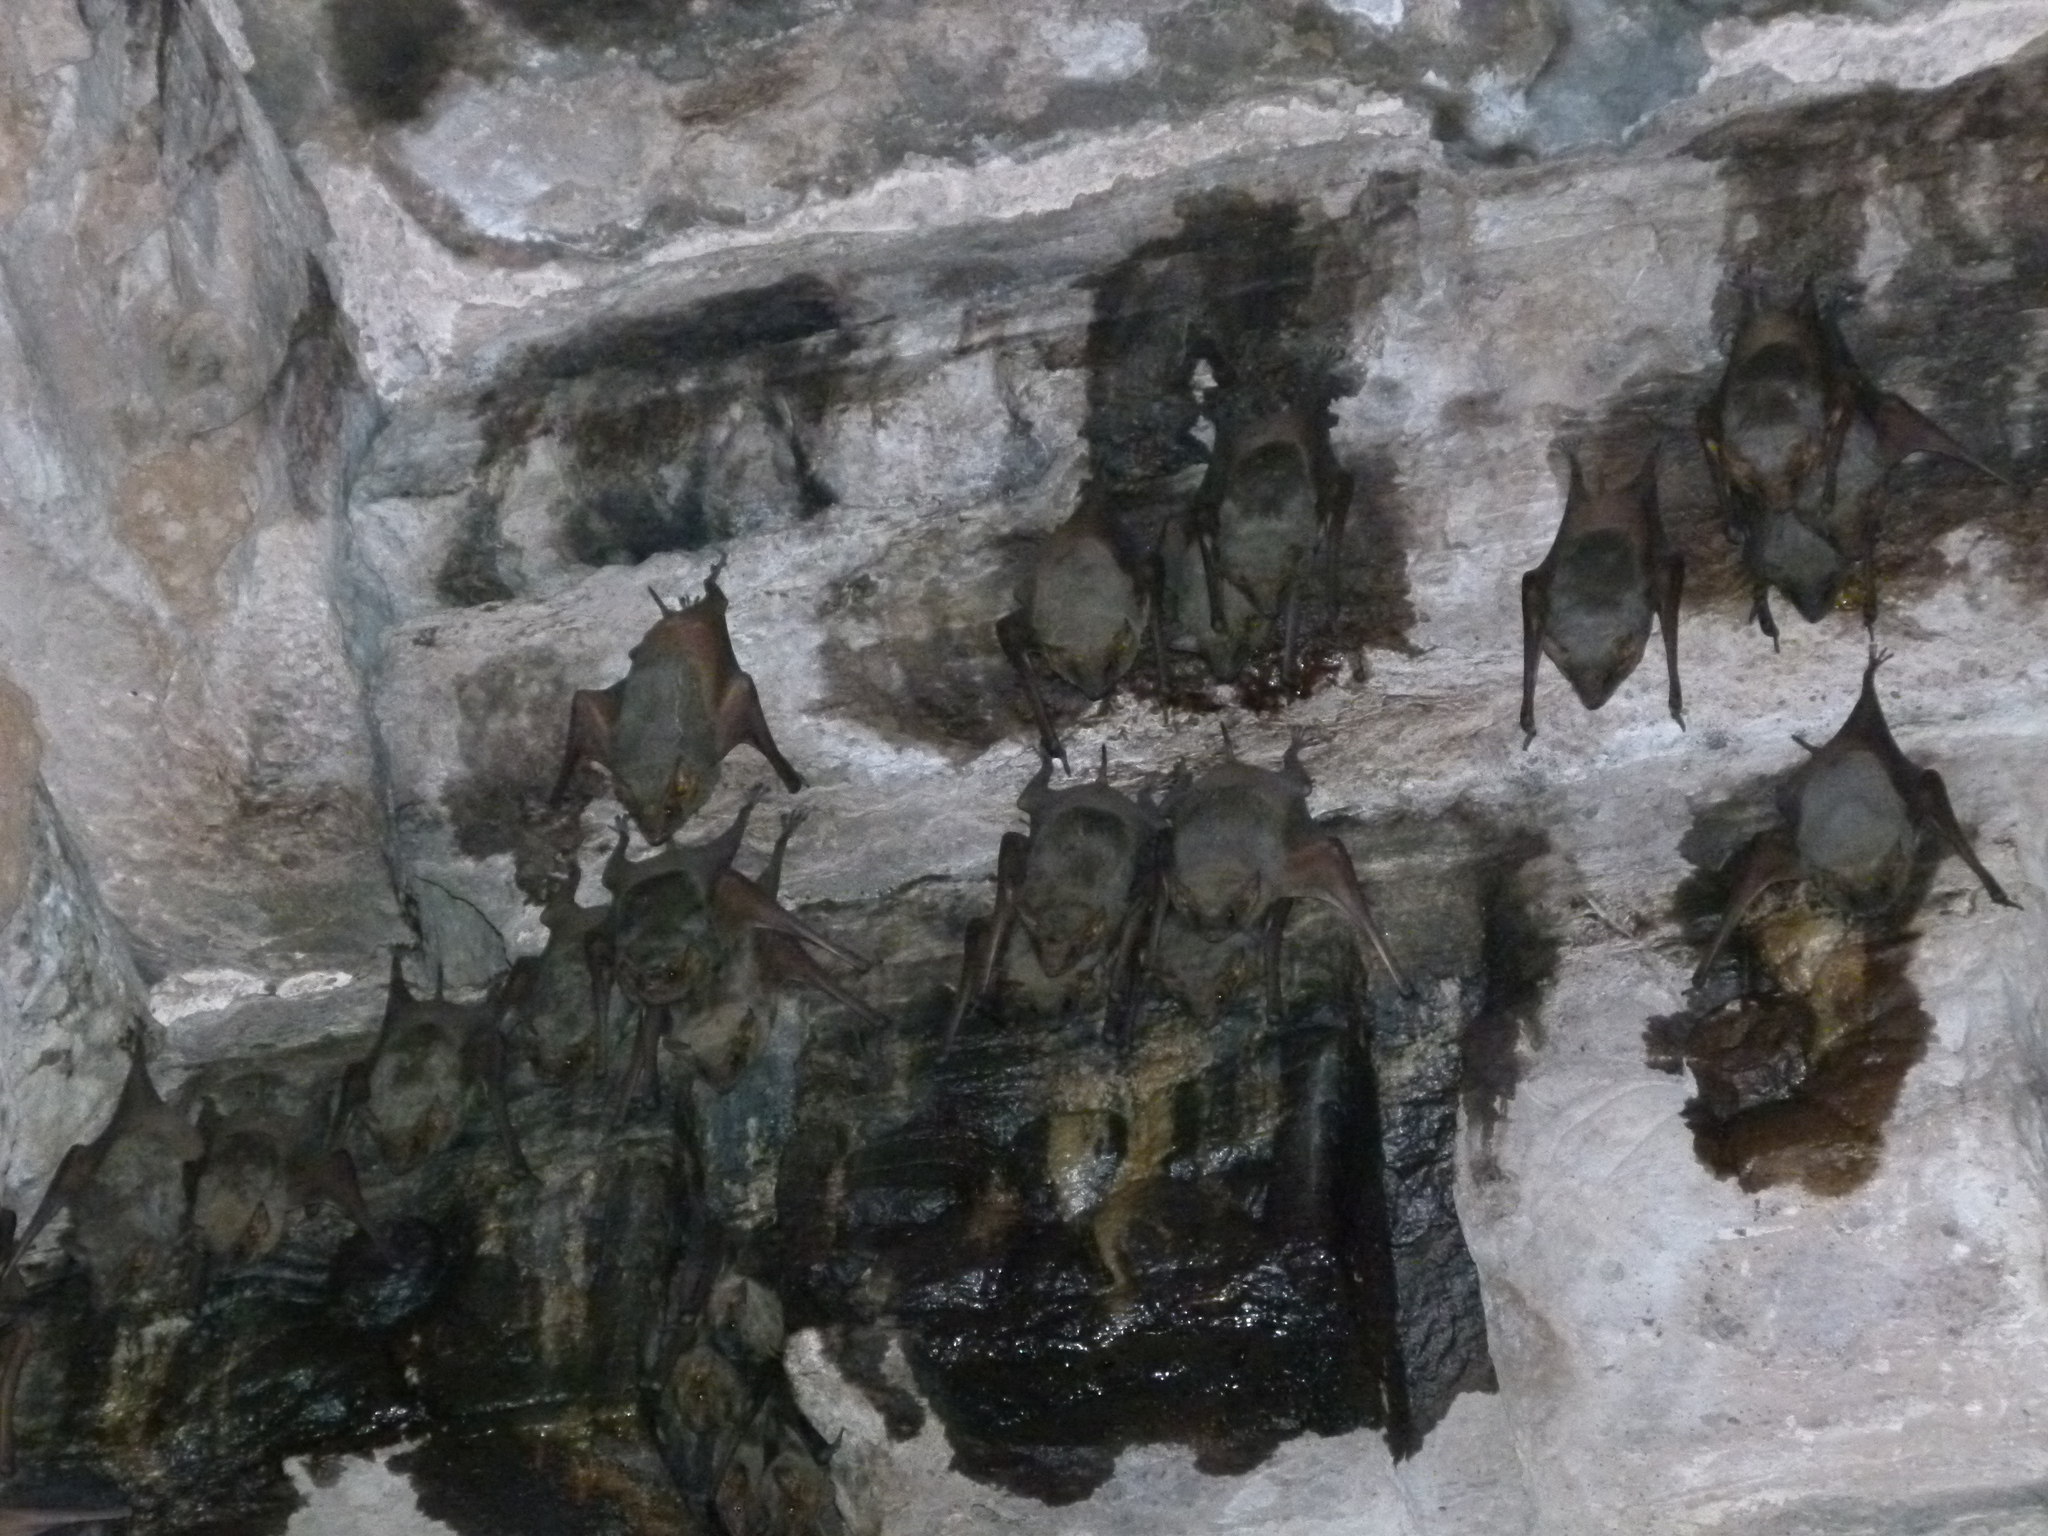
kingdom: Animalia
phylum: Chordata
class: Mammalia
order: Chiroptera
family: Emballonuridae
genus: Taphozous
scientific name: Taphozous nudiventris
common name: Naked-rumped tomb bat
